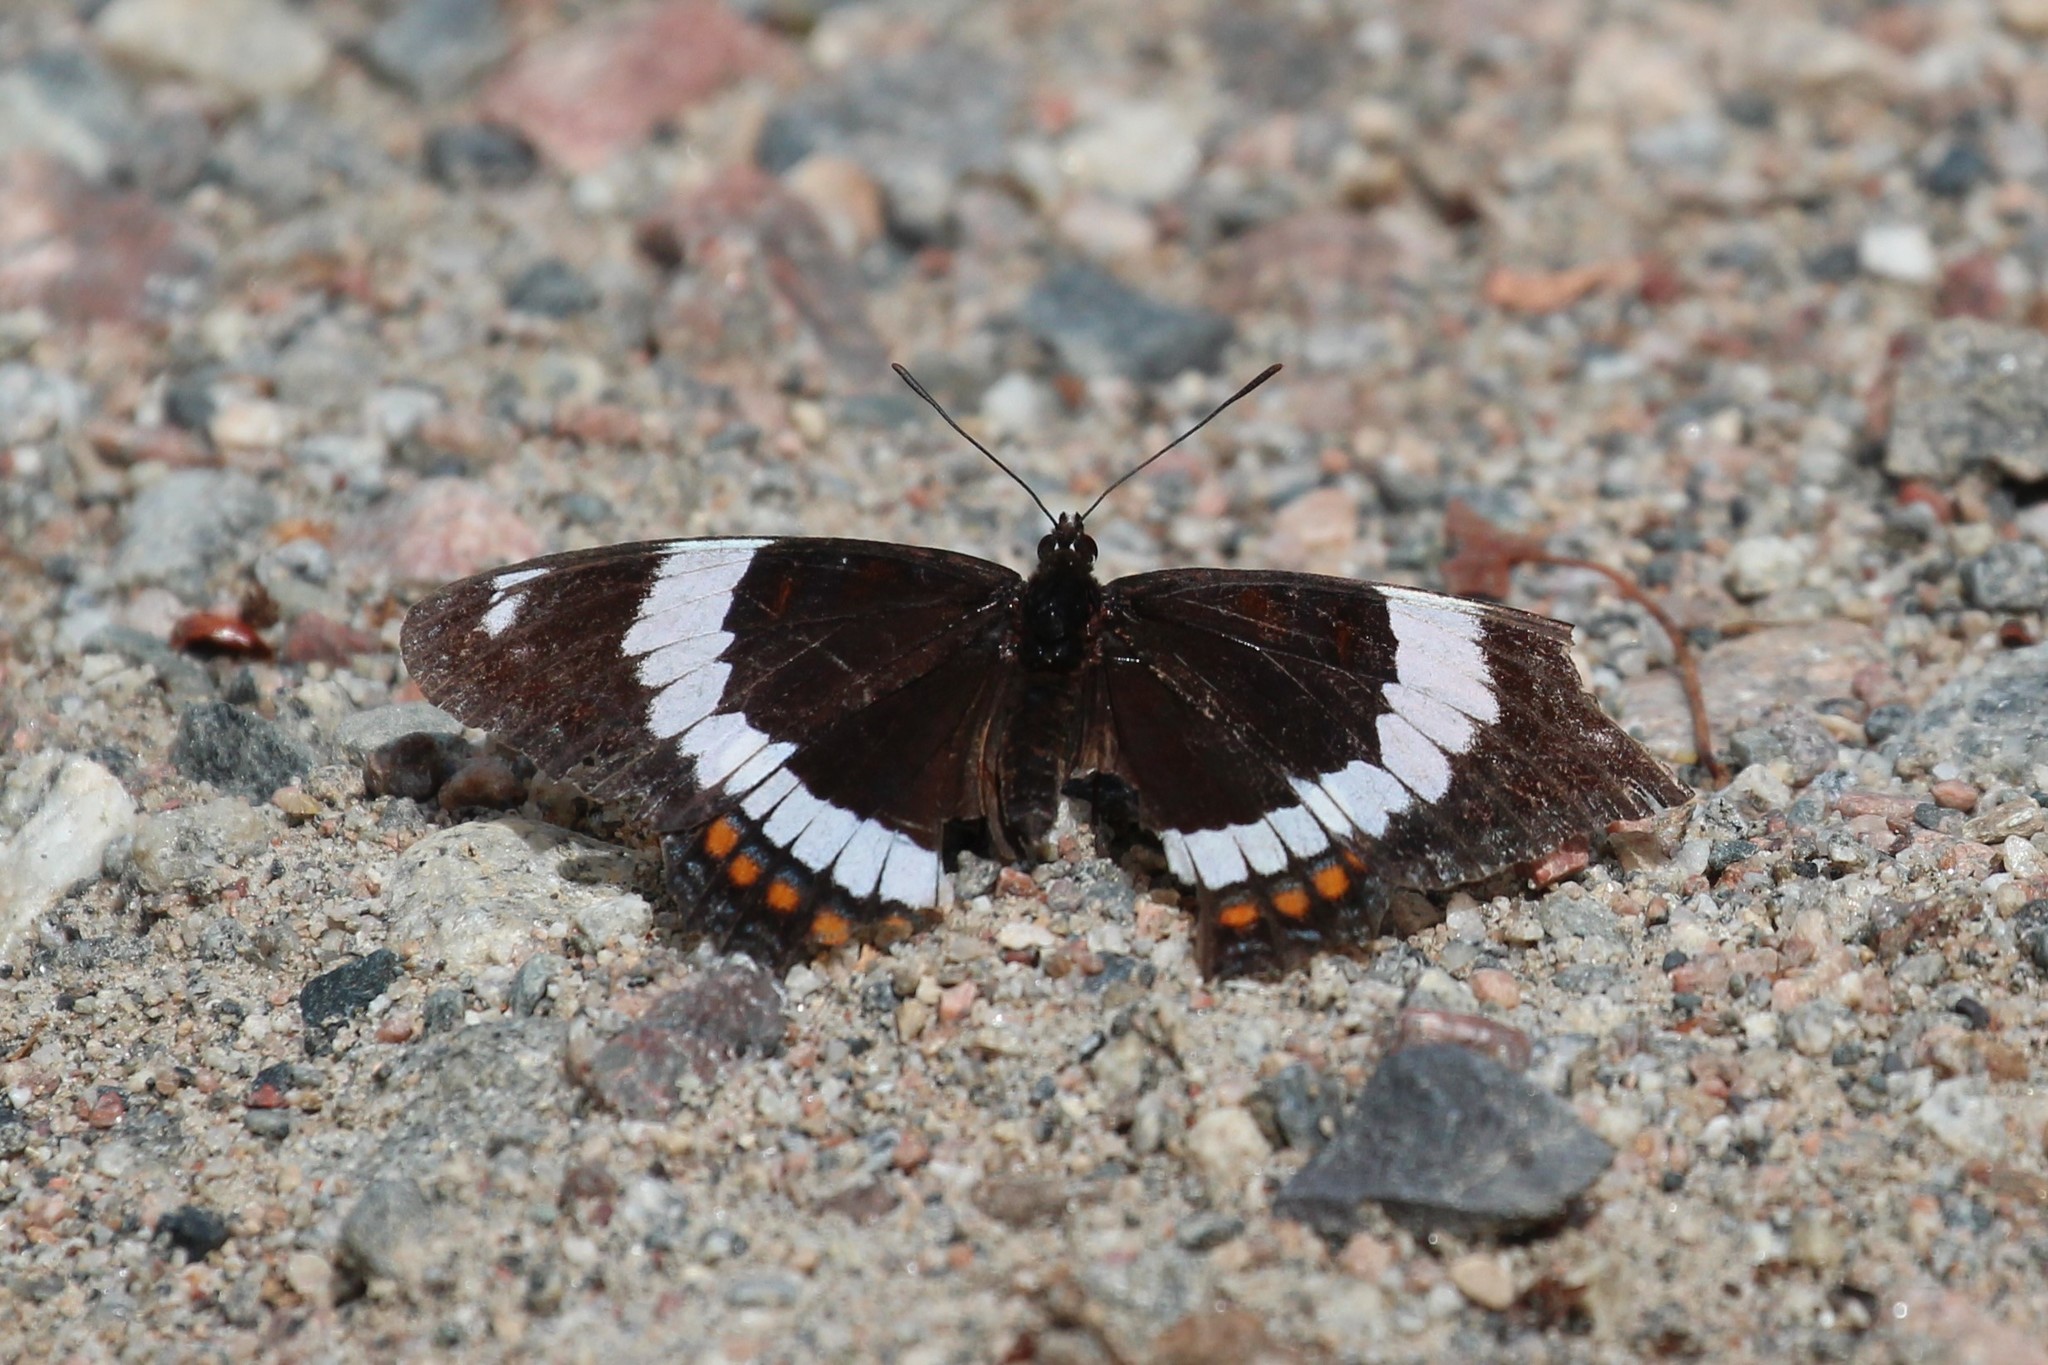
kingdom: Animalia
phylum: Arthropoda
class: Insecta
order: Lepidoptera
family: Nymphalidae
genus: Limenitis
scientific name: Limenitis arthemis
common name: Red-spotted admiral
